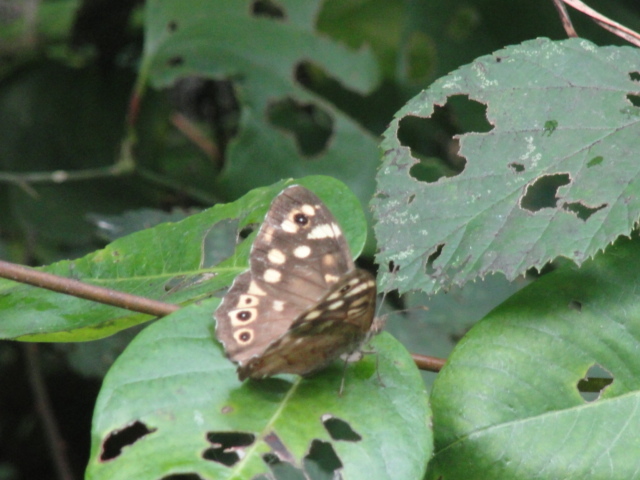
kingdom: Animalia
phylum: Arthropoda
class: Insecta
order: Lepidoptera
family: Nymphalidae
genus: Pararge
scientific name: Pararge aegeria
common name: Speckled wood
